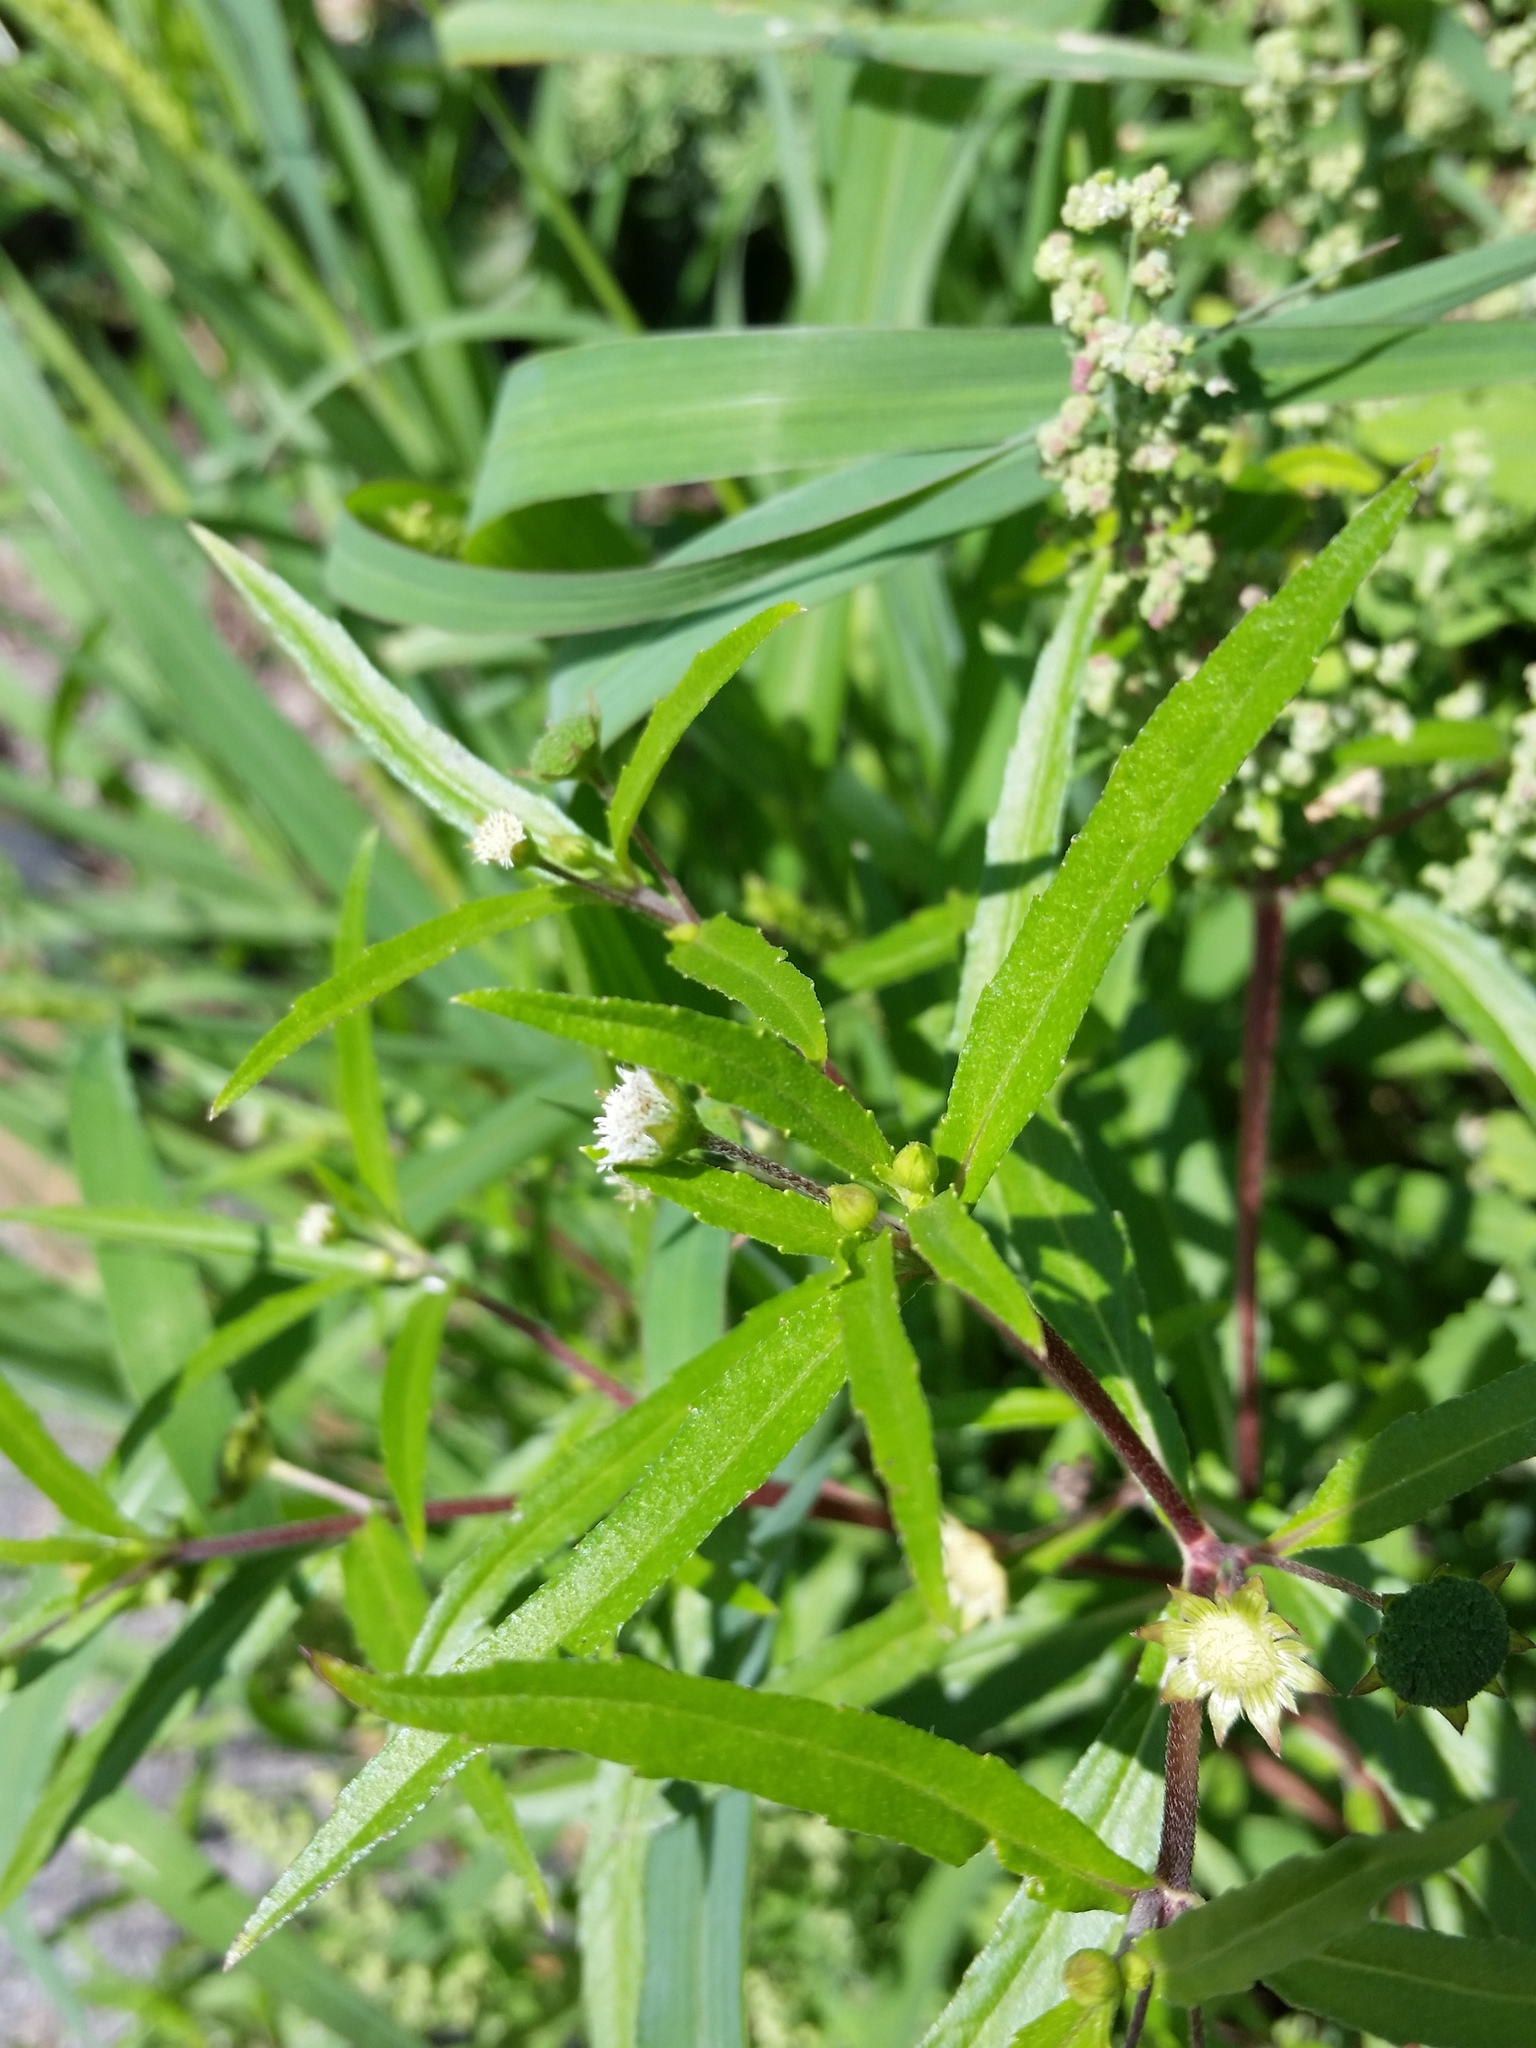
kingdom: Plantae
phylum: Tracheophyta
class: Magnoliopsida
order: Asterales
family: Asteraceae
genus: Eclipta
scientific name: Eclipta prostrata
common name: False daisy
